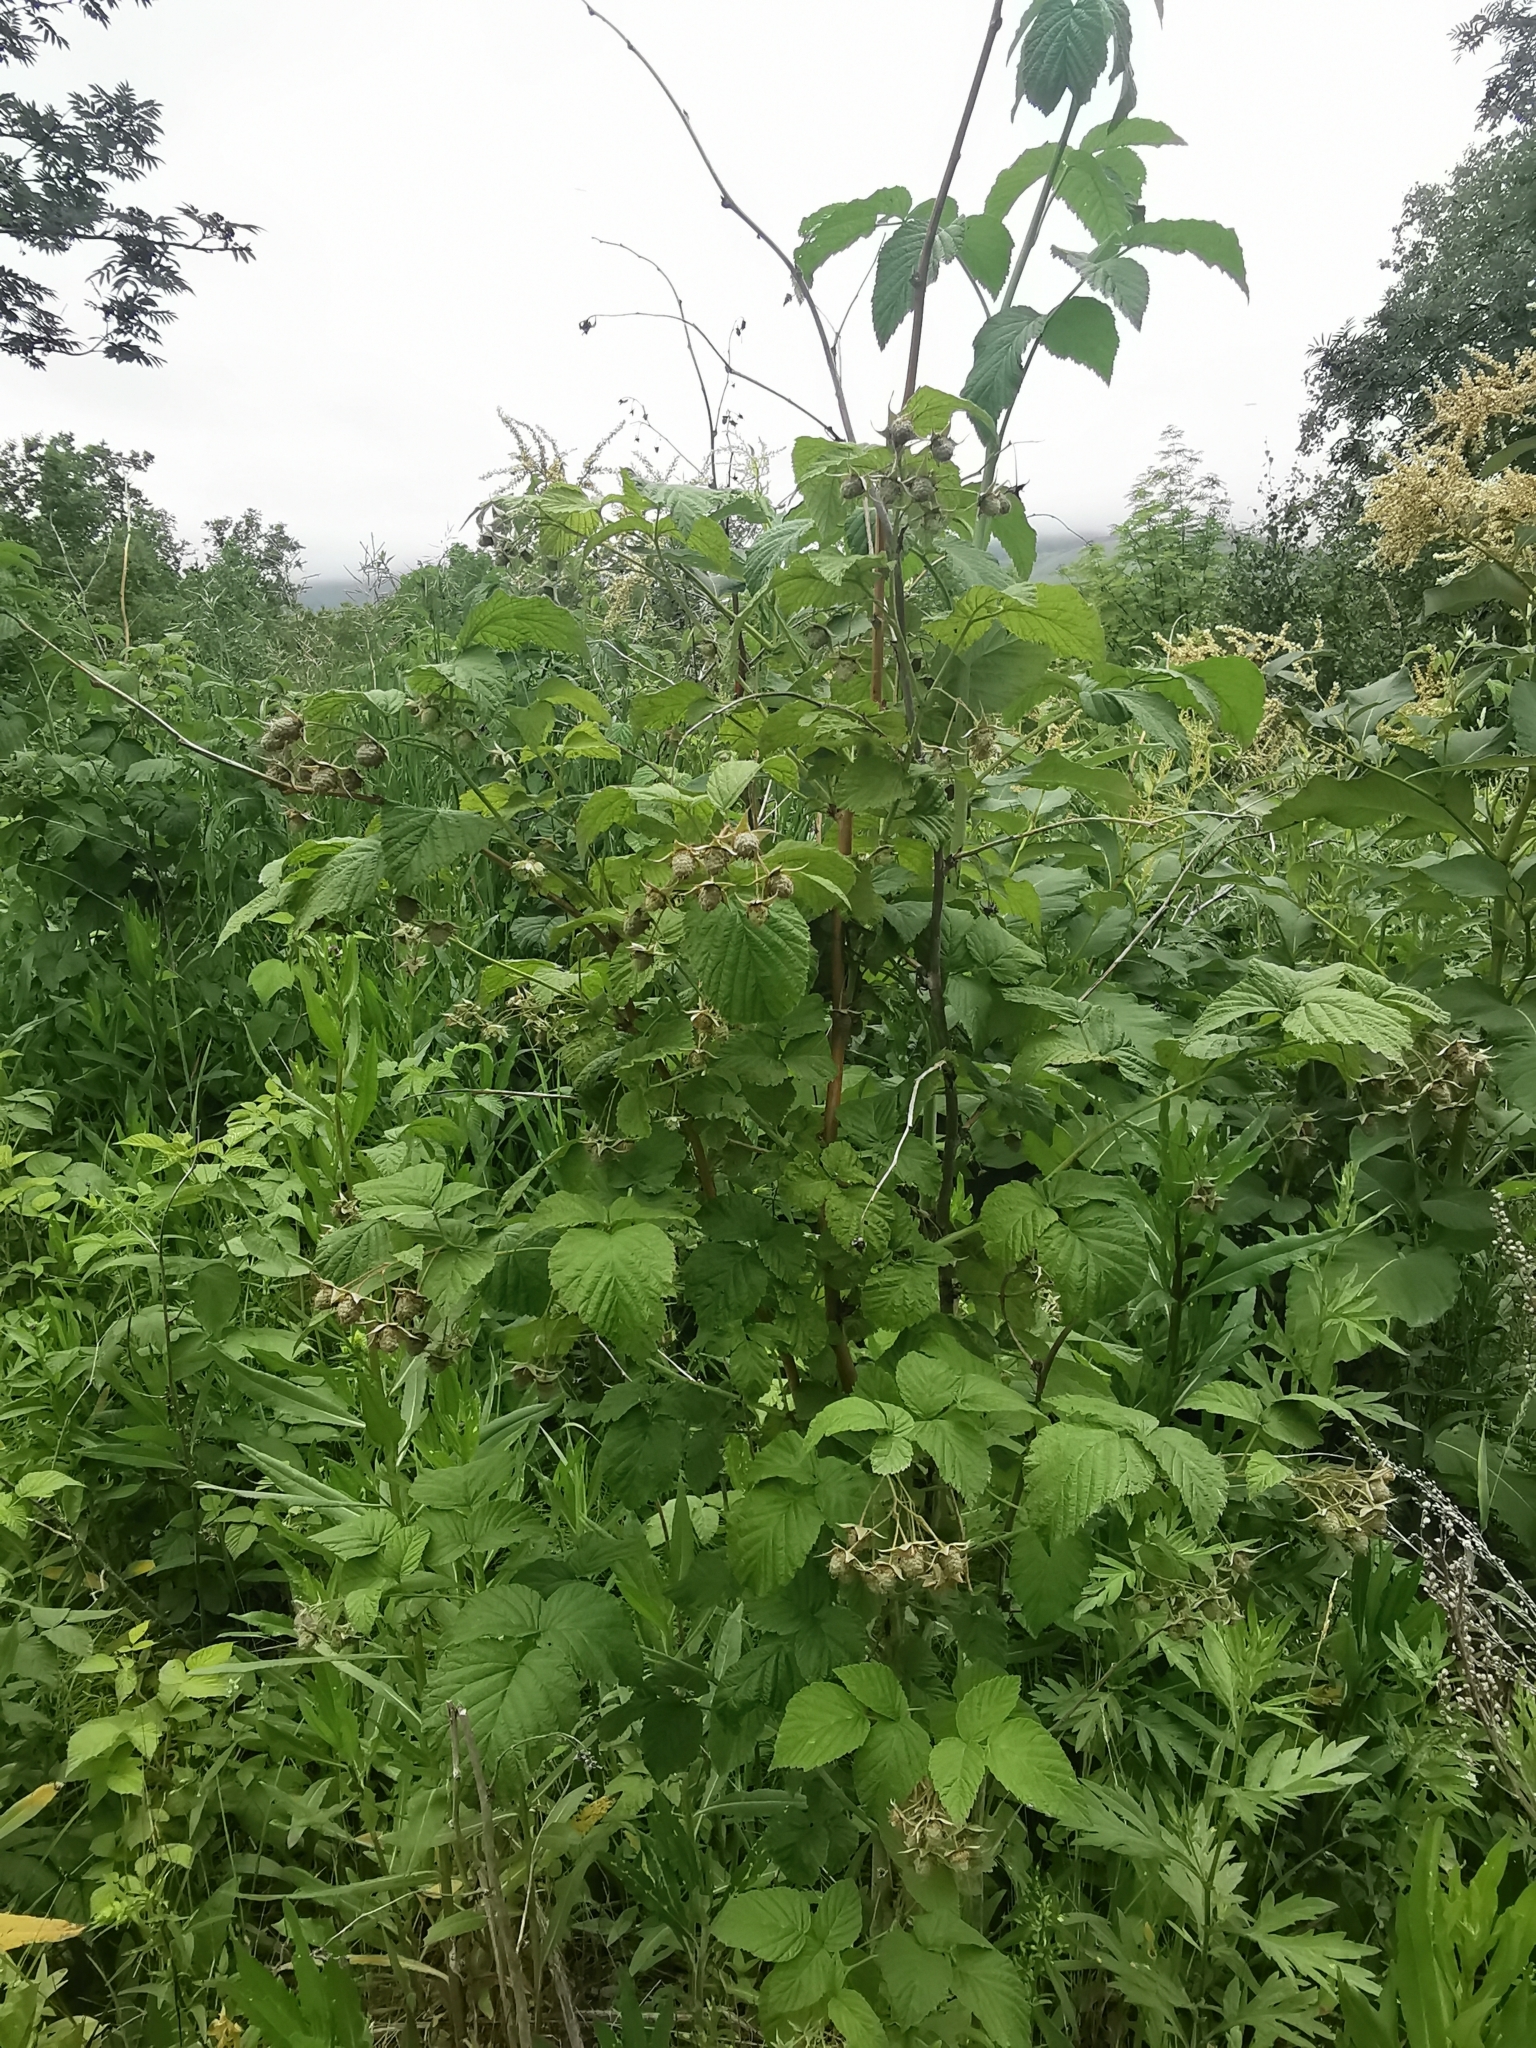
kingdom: Plantae
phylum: Tracheophyta
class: Magnoliopsida
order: Rosales
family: Rosaceae
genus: Rubus
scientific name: Rubus idaeus
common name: Raspberry
